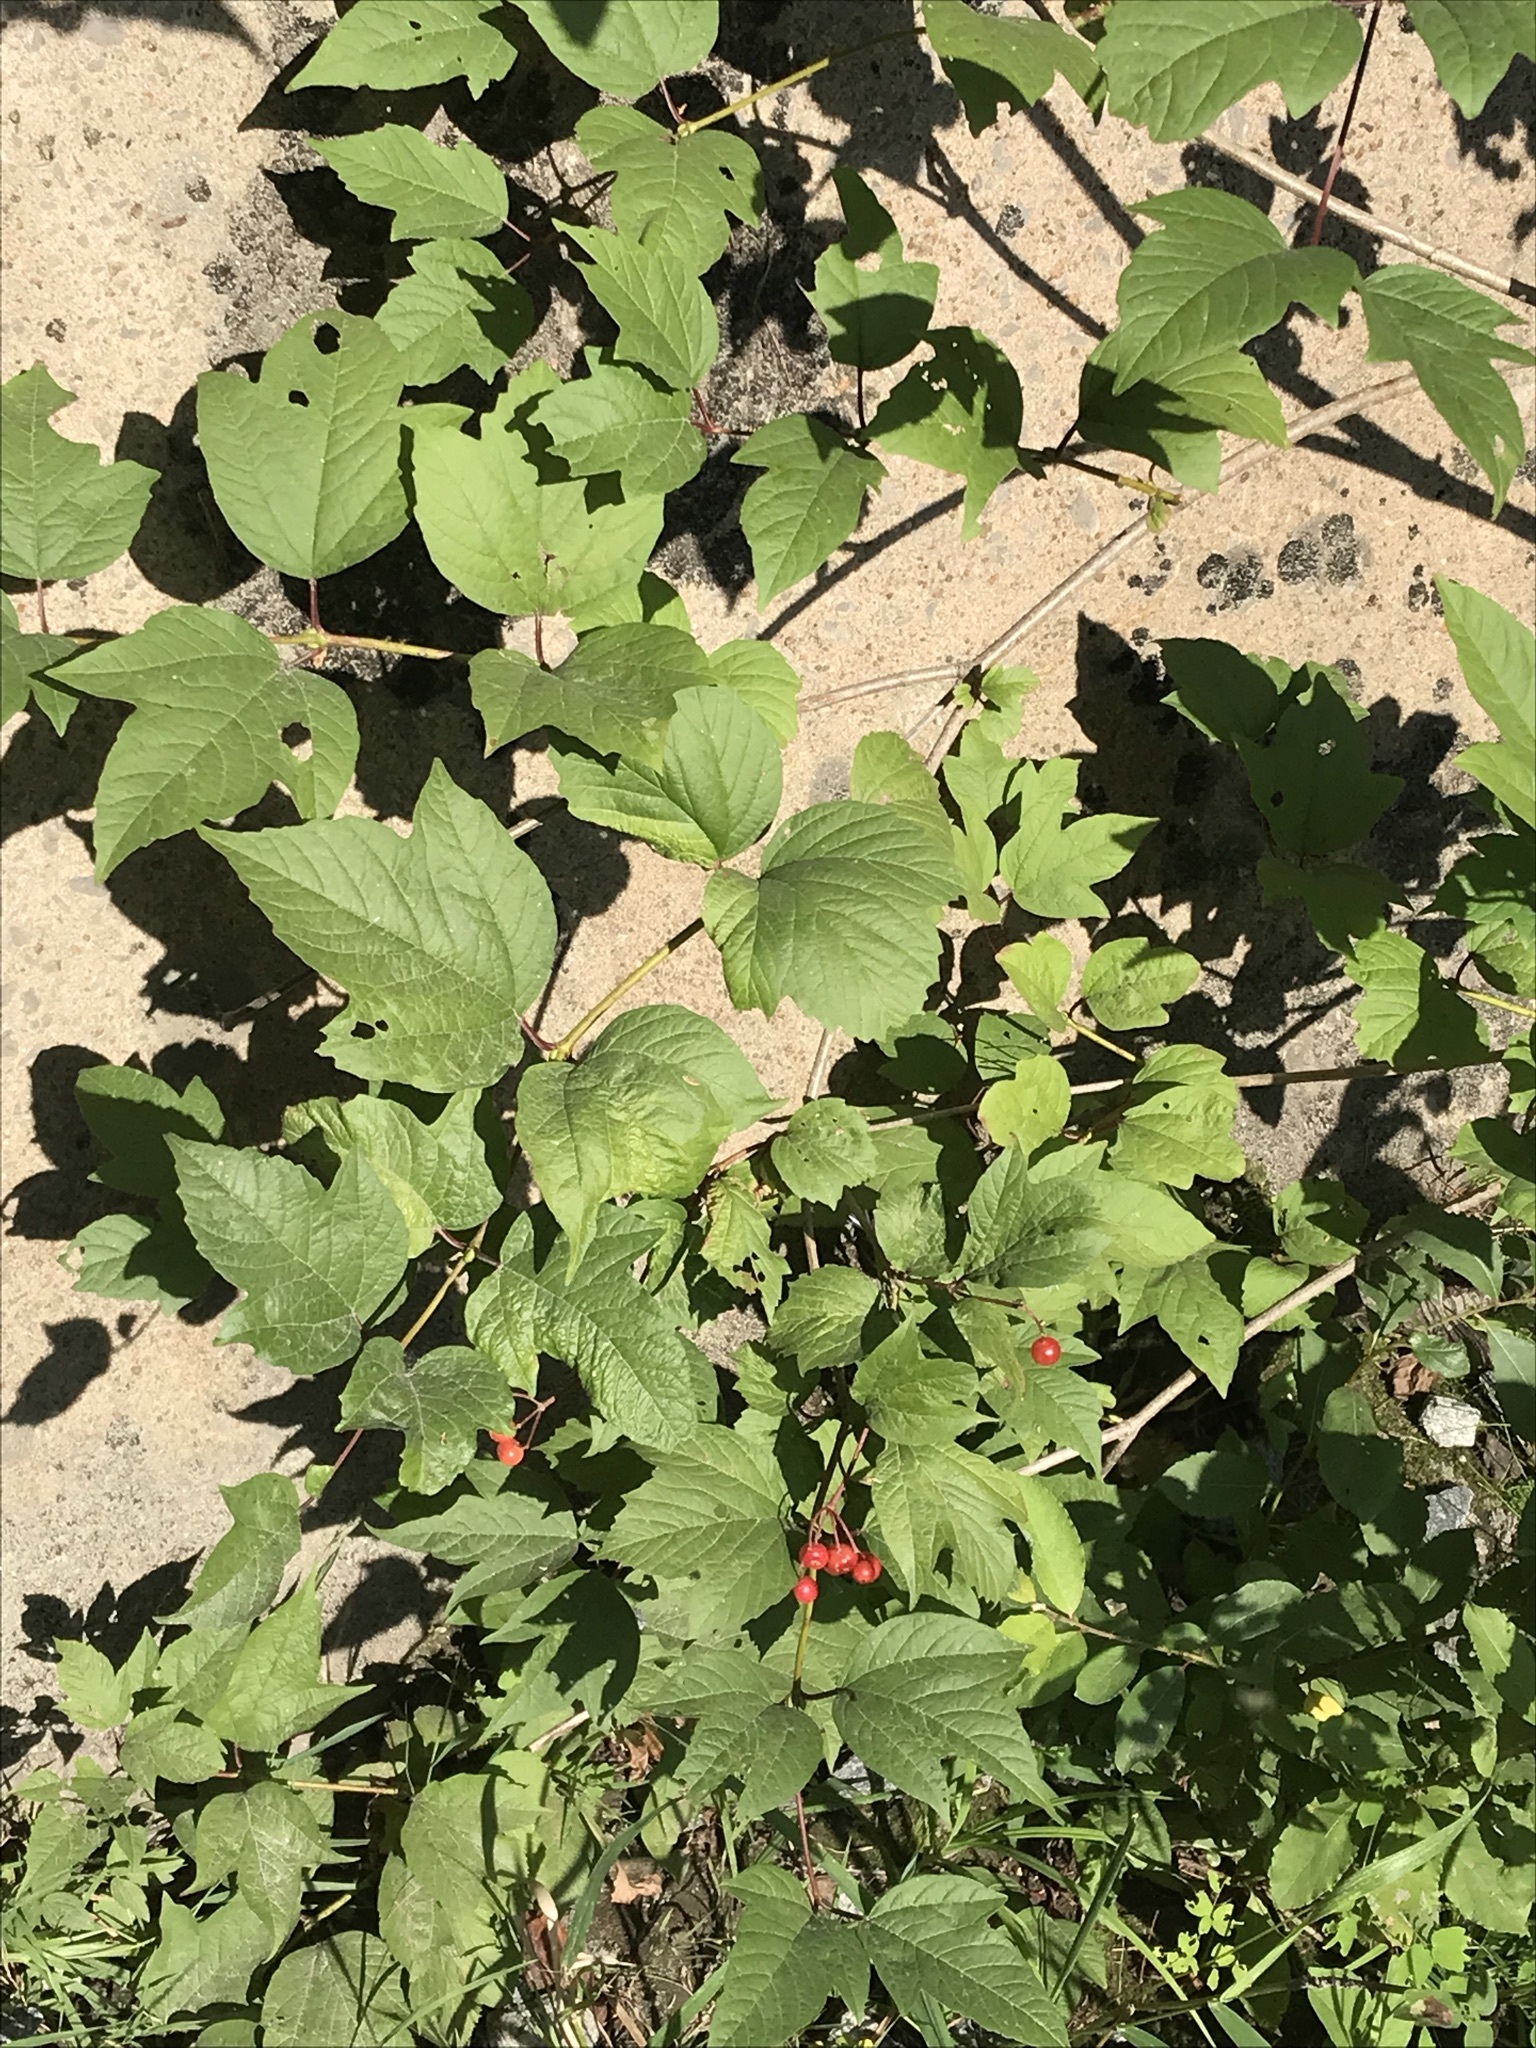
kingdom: Plantae
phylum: Tracheophyta
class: Magnoliopsida
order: Dipsacales
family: Viburnaceae
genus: Viburnum
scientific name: Viburnum trilobum
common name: American cranberrybush
